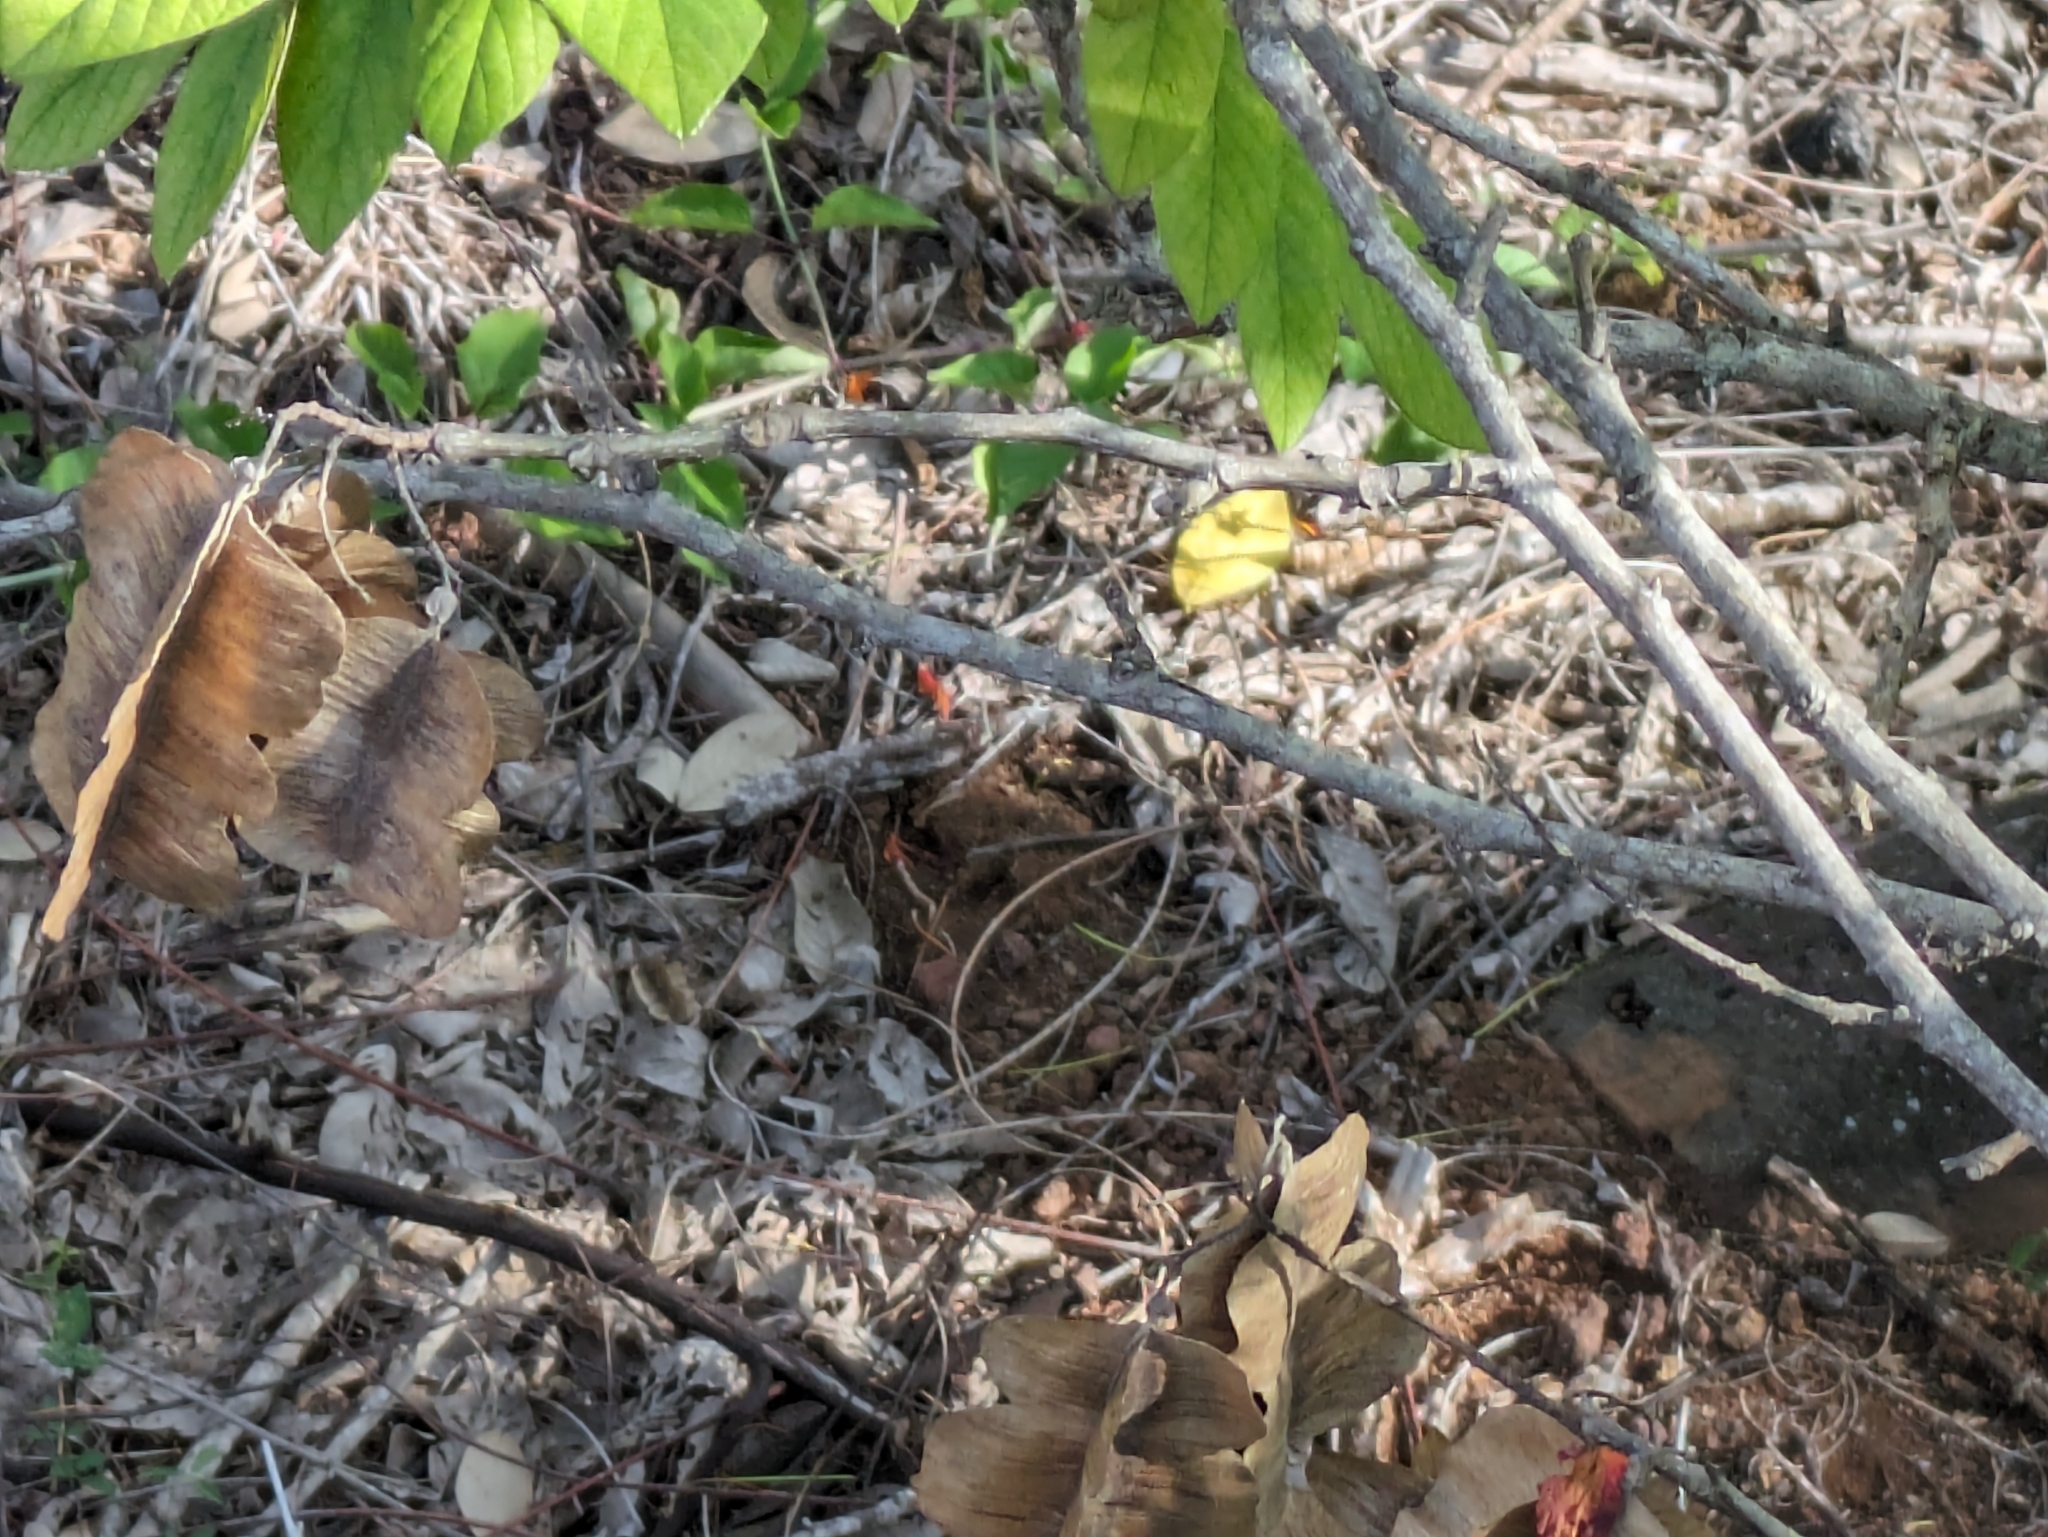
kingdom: Plantae
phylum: Tracheophyta
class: Magnoliopsida
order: Fabales
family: Fabaceae
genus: Piscidia
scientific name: Piscidia carthagenensis
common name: Stinkwood
